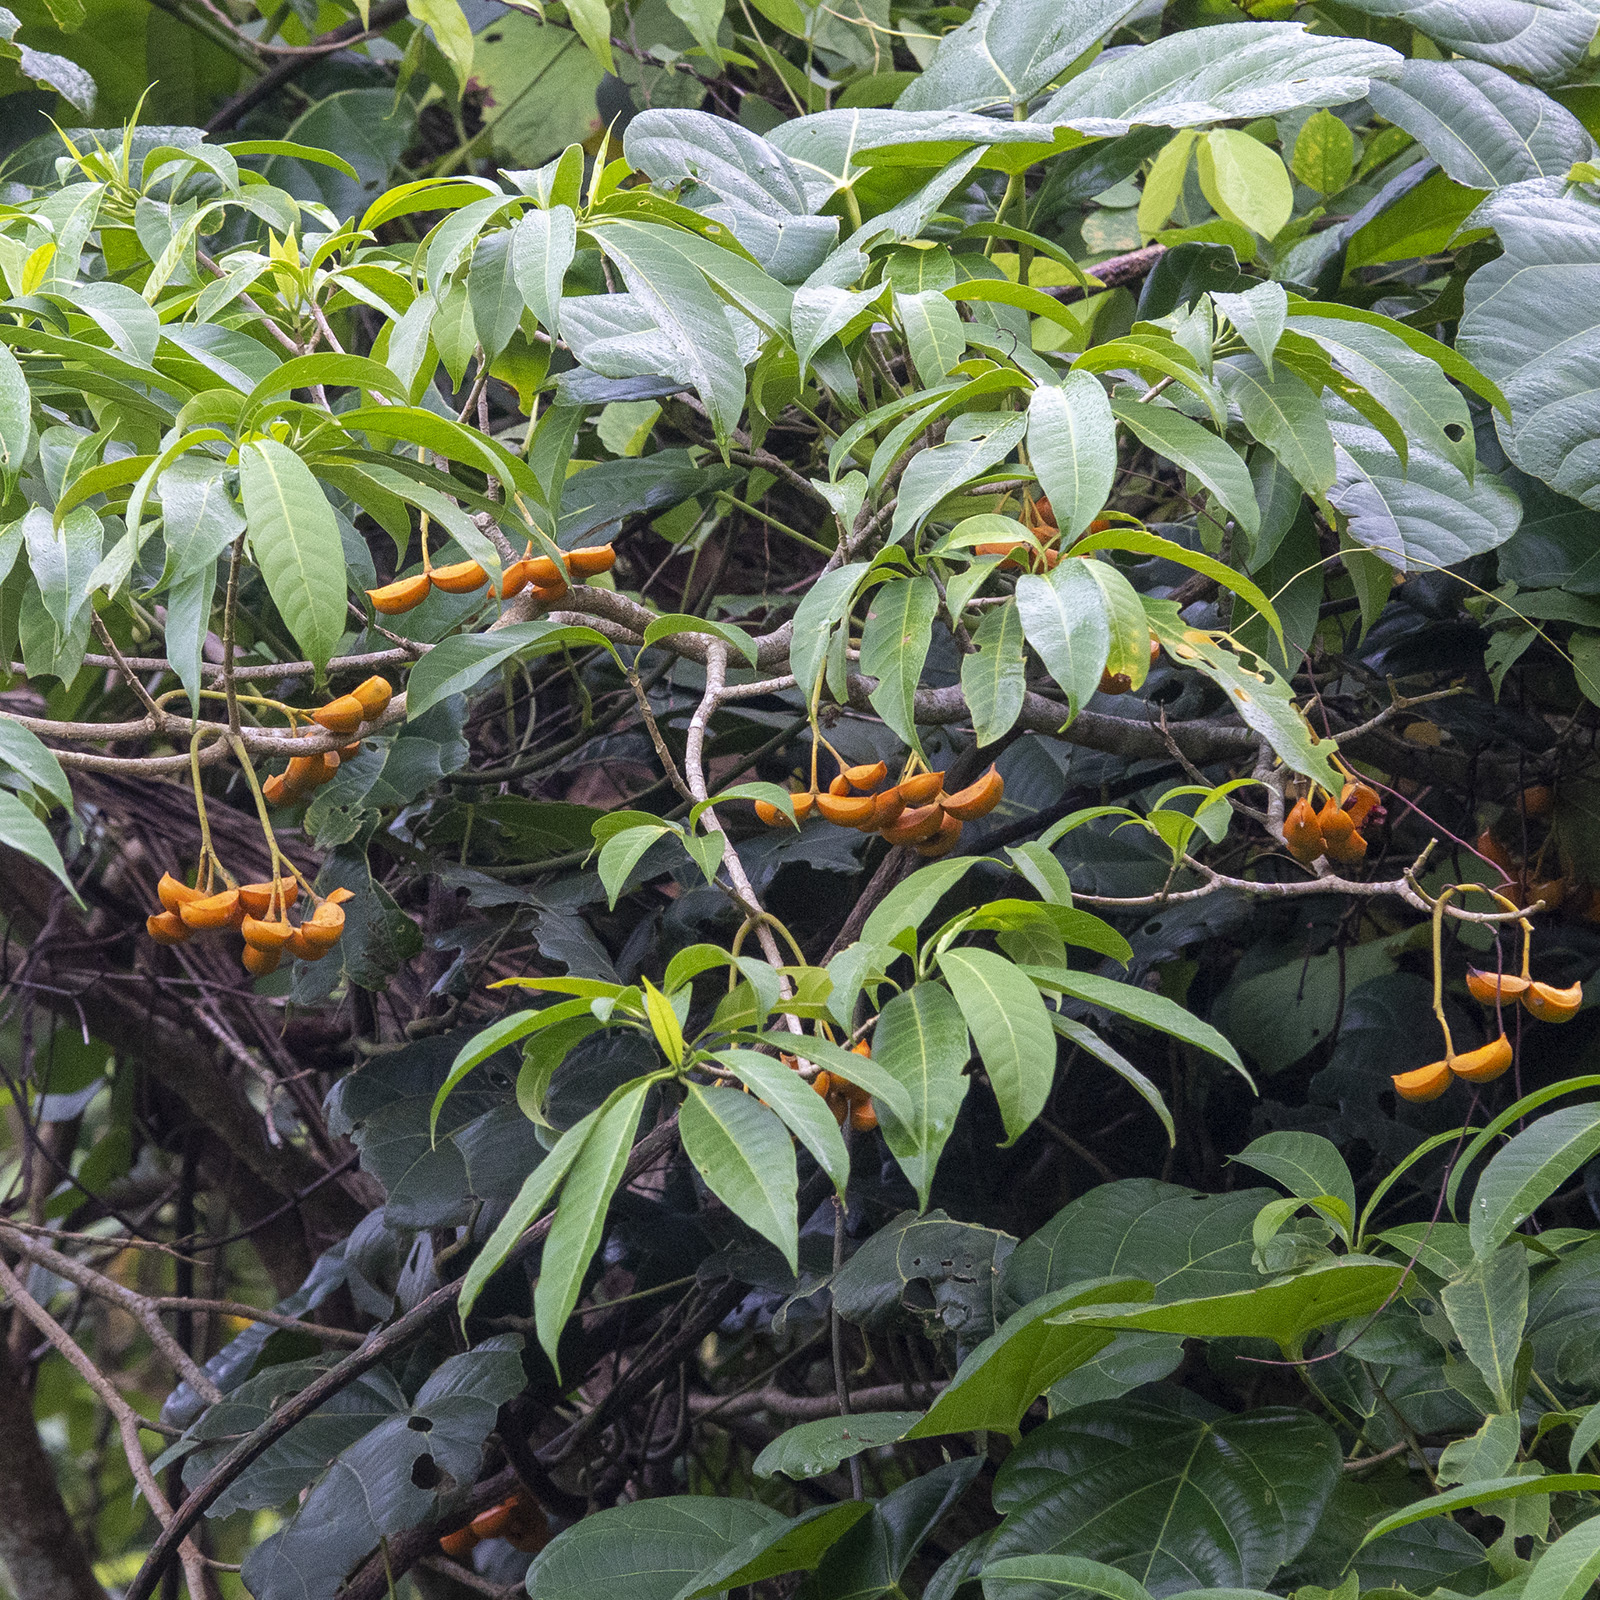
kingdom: Plantae
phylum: Tracheophyta
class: Magnoliopsida
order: Gentianales
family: Apocynaceae
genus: Tabernaemontana
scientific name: Tabernaemontana alternifolia
